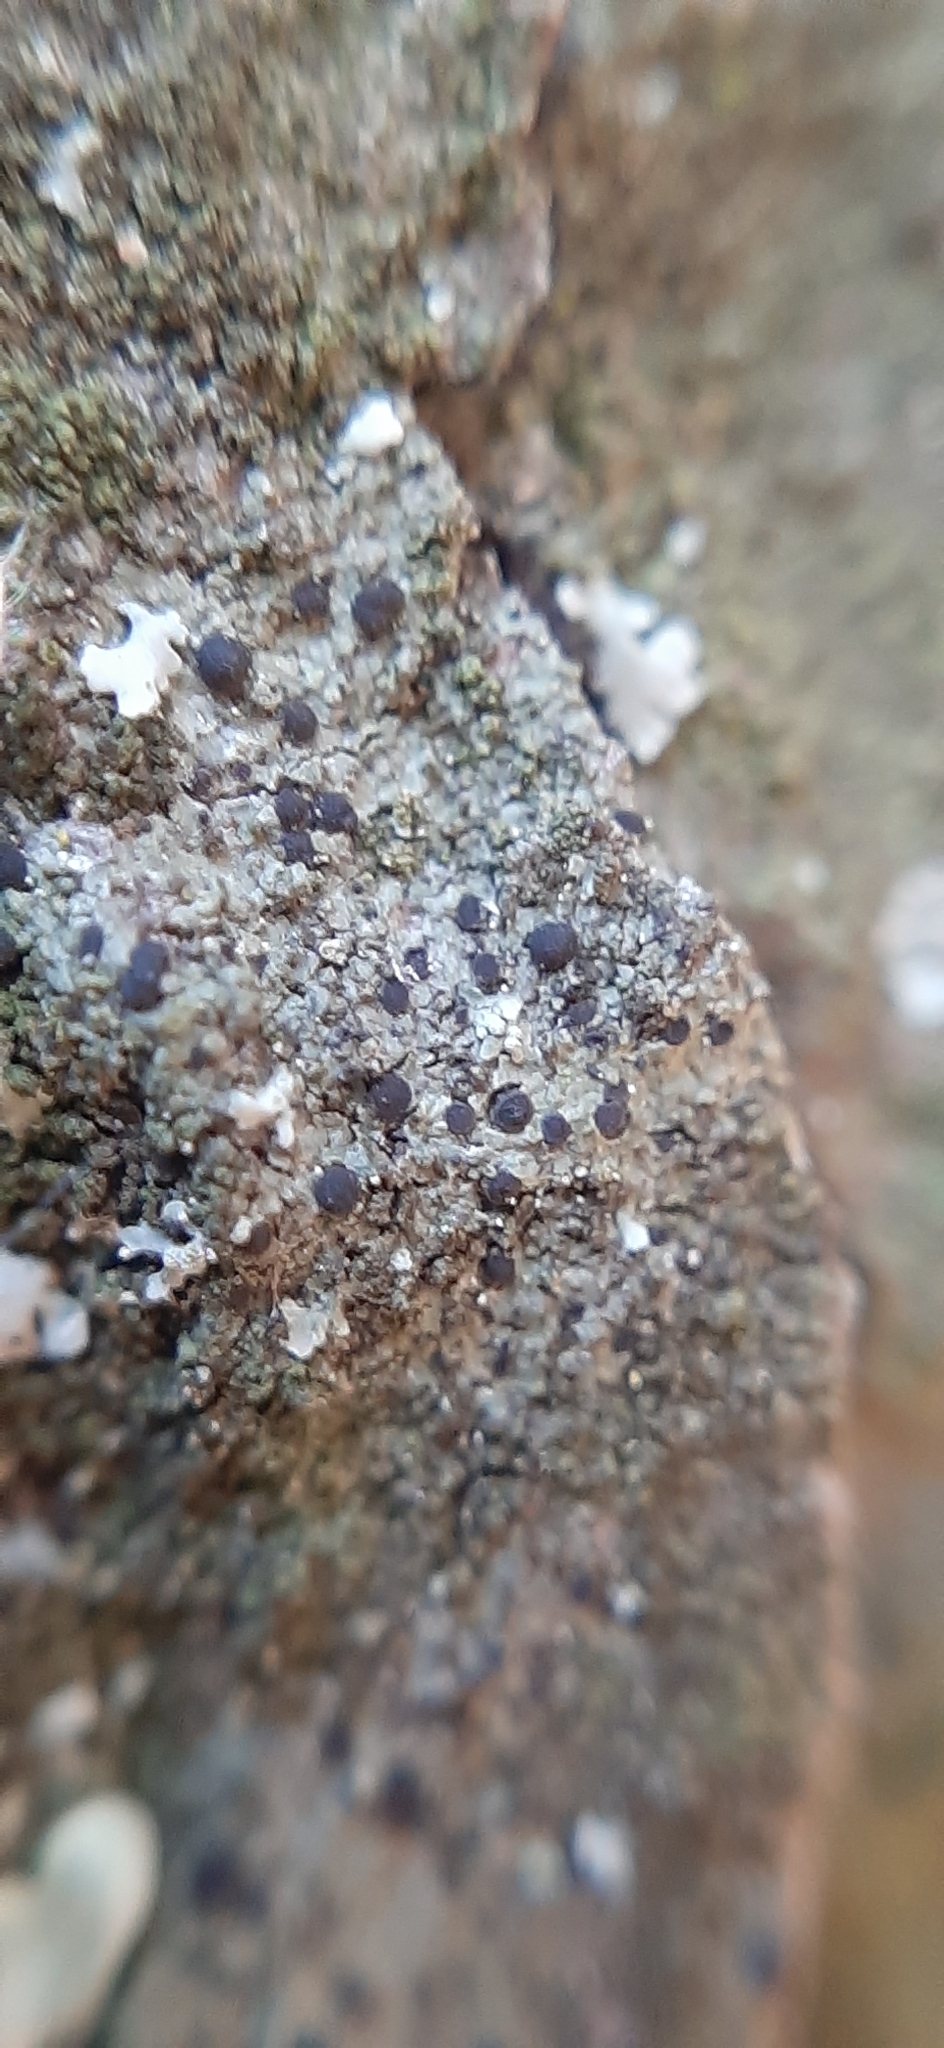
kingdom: Fungi
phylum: Ascomycota
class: Lecanoromycetes
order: Lecanorales
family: Catillariaceae
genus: Catillaria
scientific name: Catillaria nigroclavata
